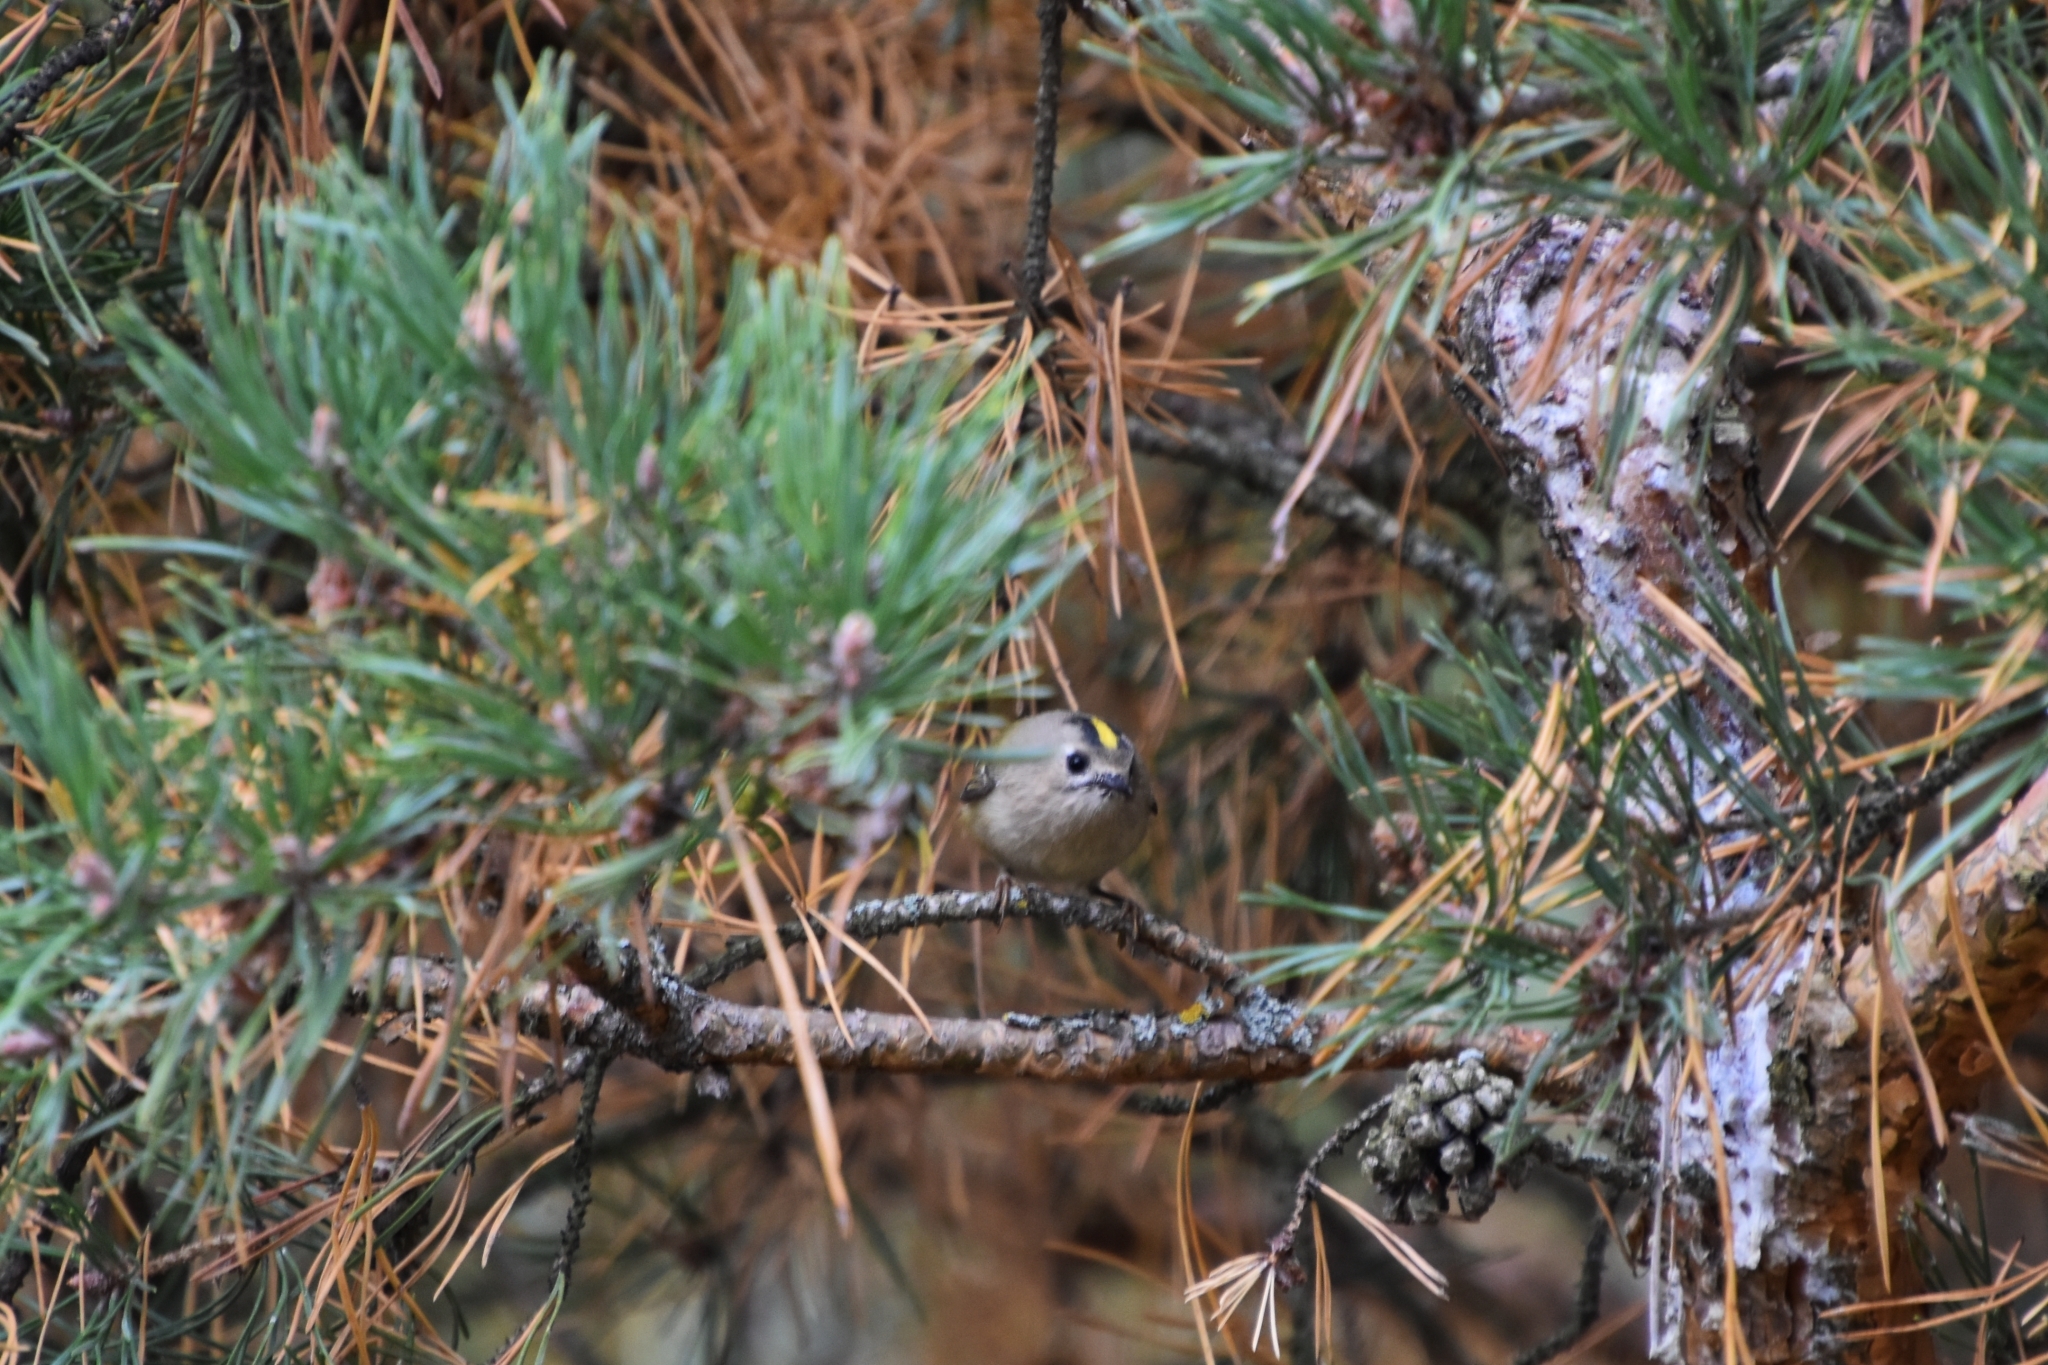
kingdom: Animalia
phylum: Chordata
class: Aves
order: Passeriformes
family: Regulidae
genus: Regulus
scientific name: Regulus regulus
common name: Goldcrest
